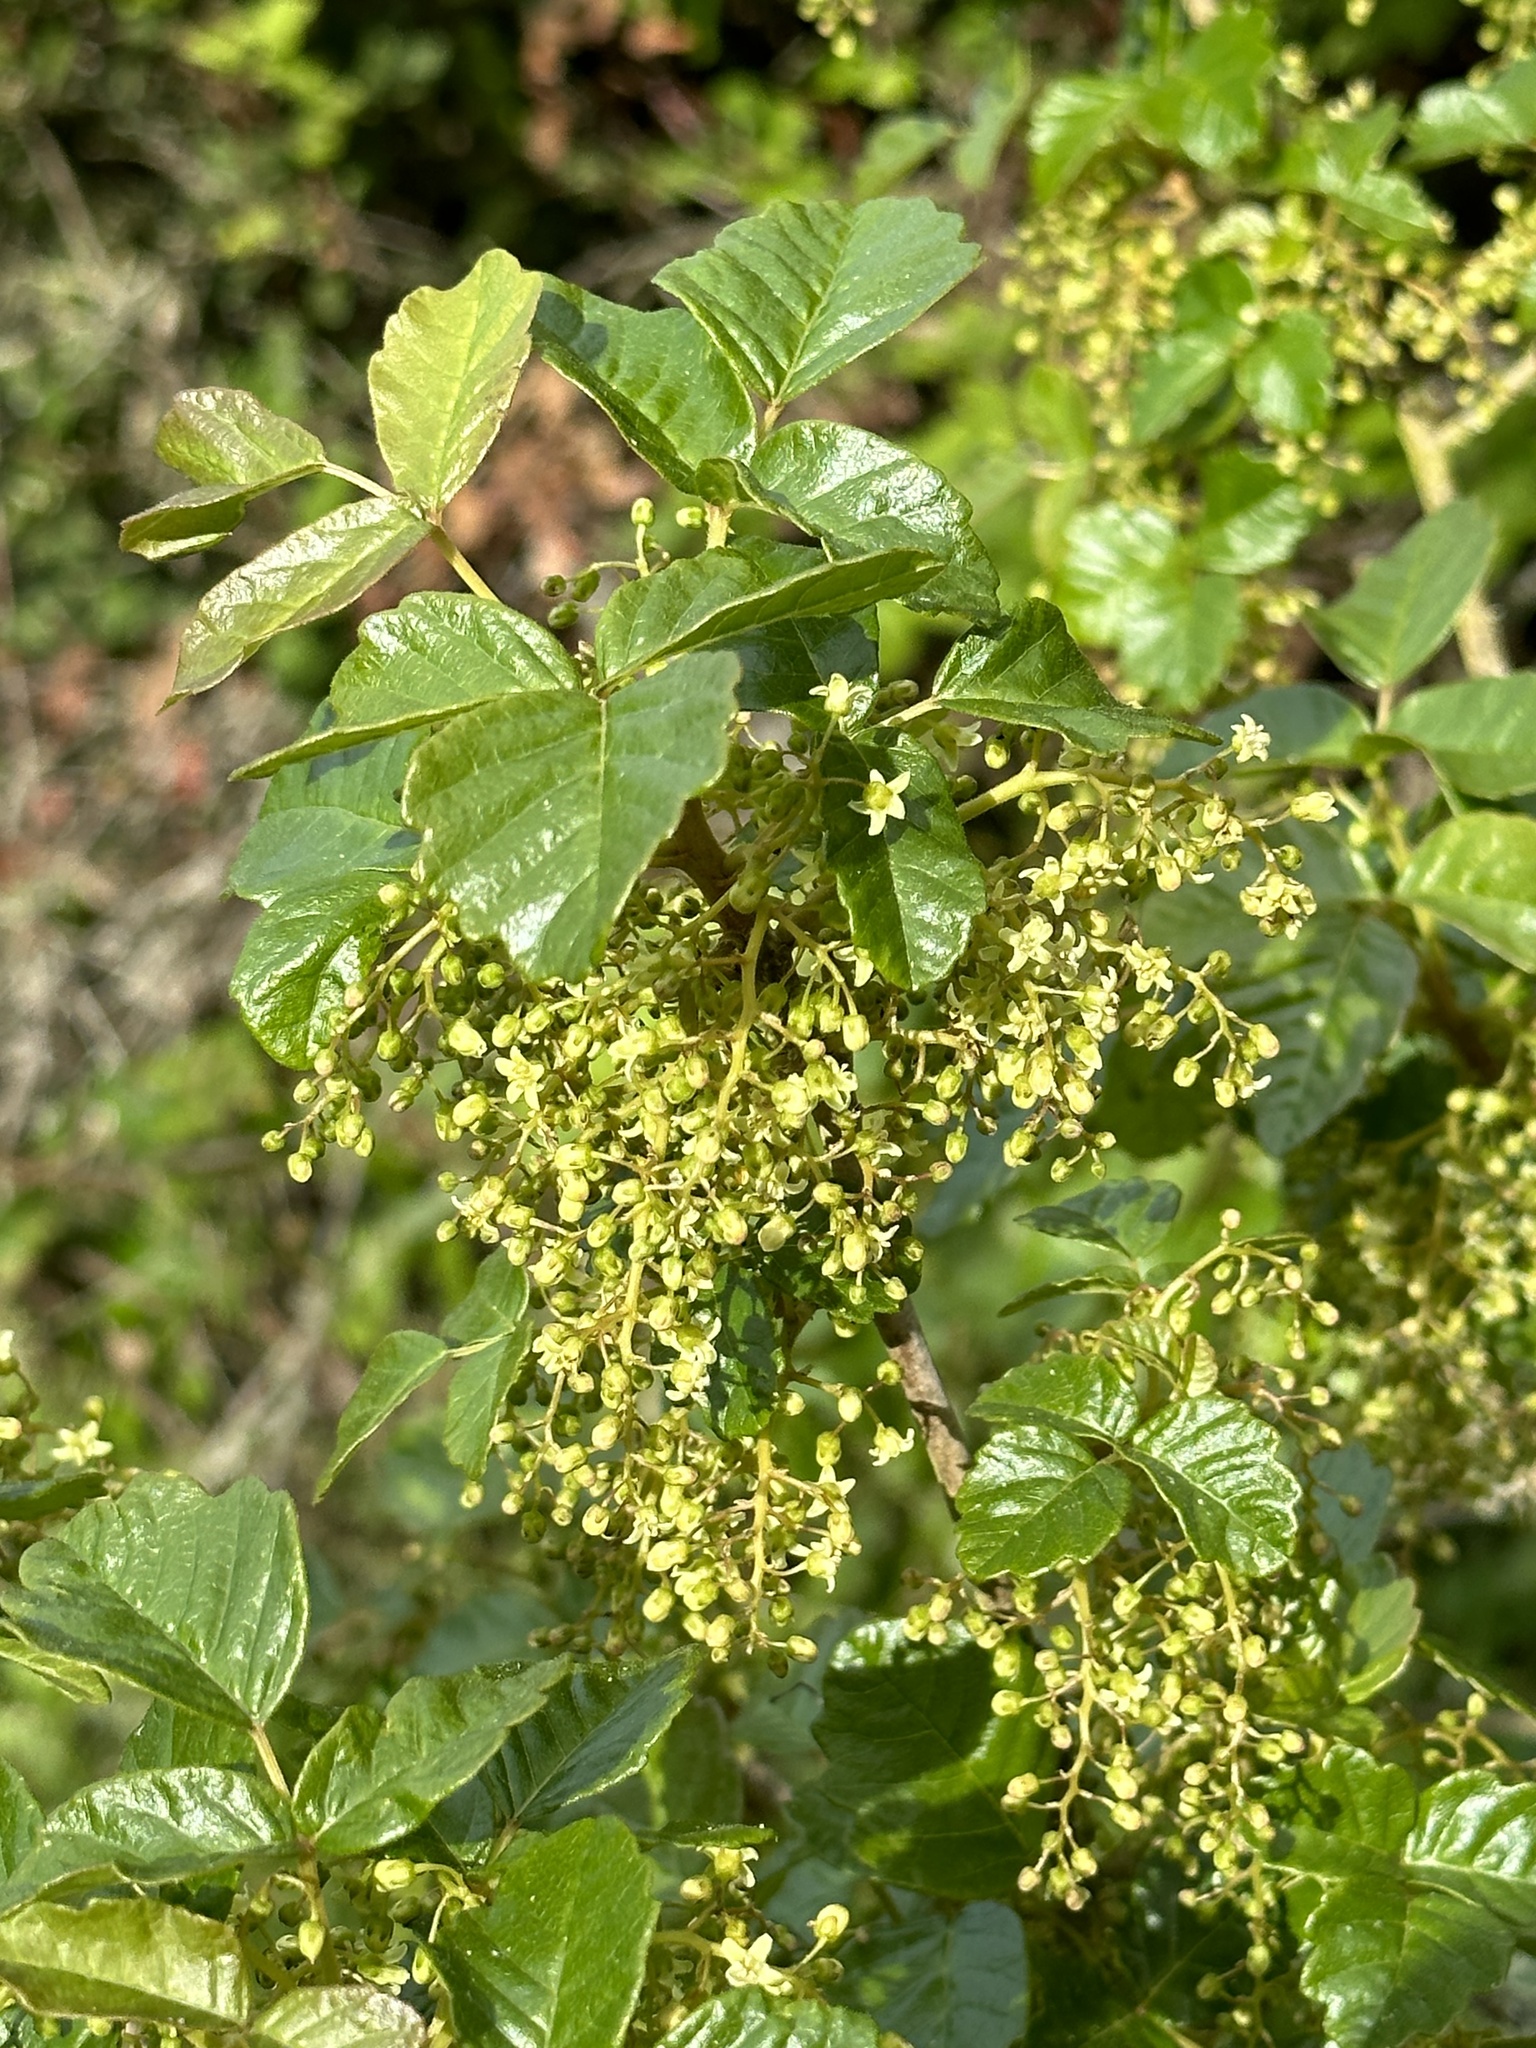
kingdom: Plantae
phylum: Tracheophyta
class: Magnoliopsida
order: Sapindales
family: Anacardiaceae
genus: Toxicodendron
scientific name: Toxicodendron diversilobum
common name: Pacific poison-oak
